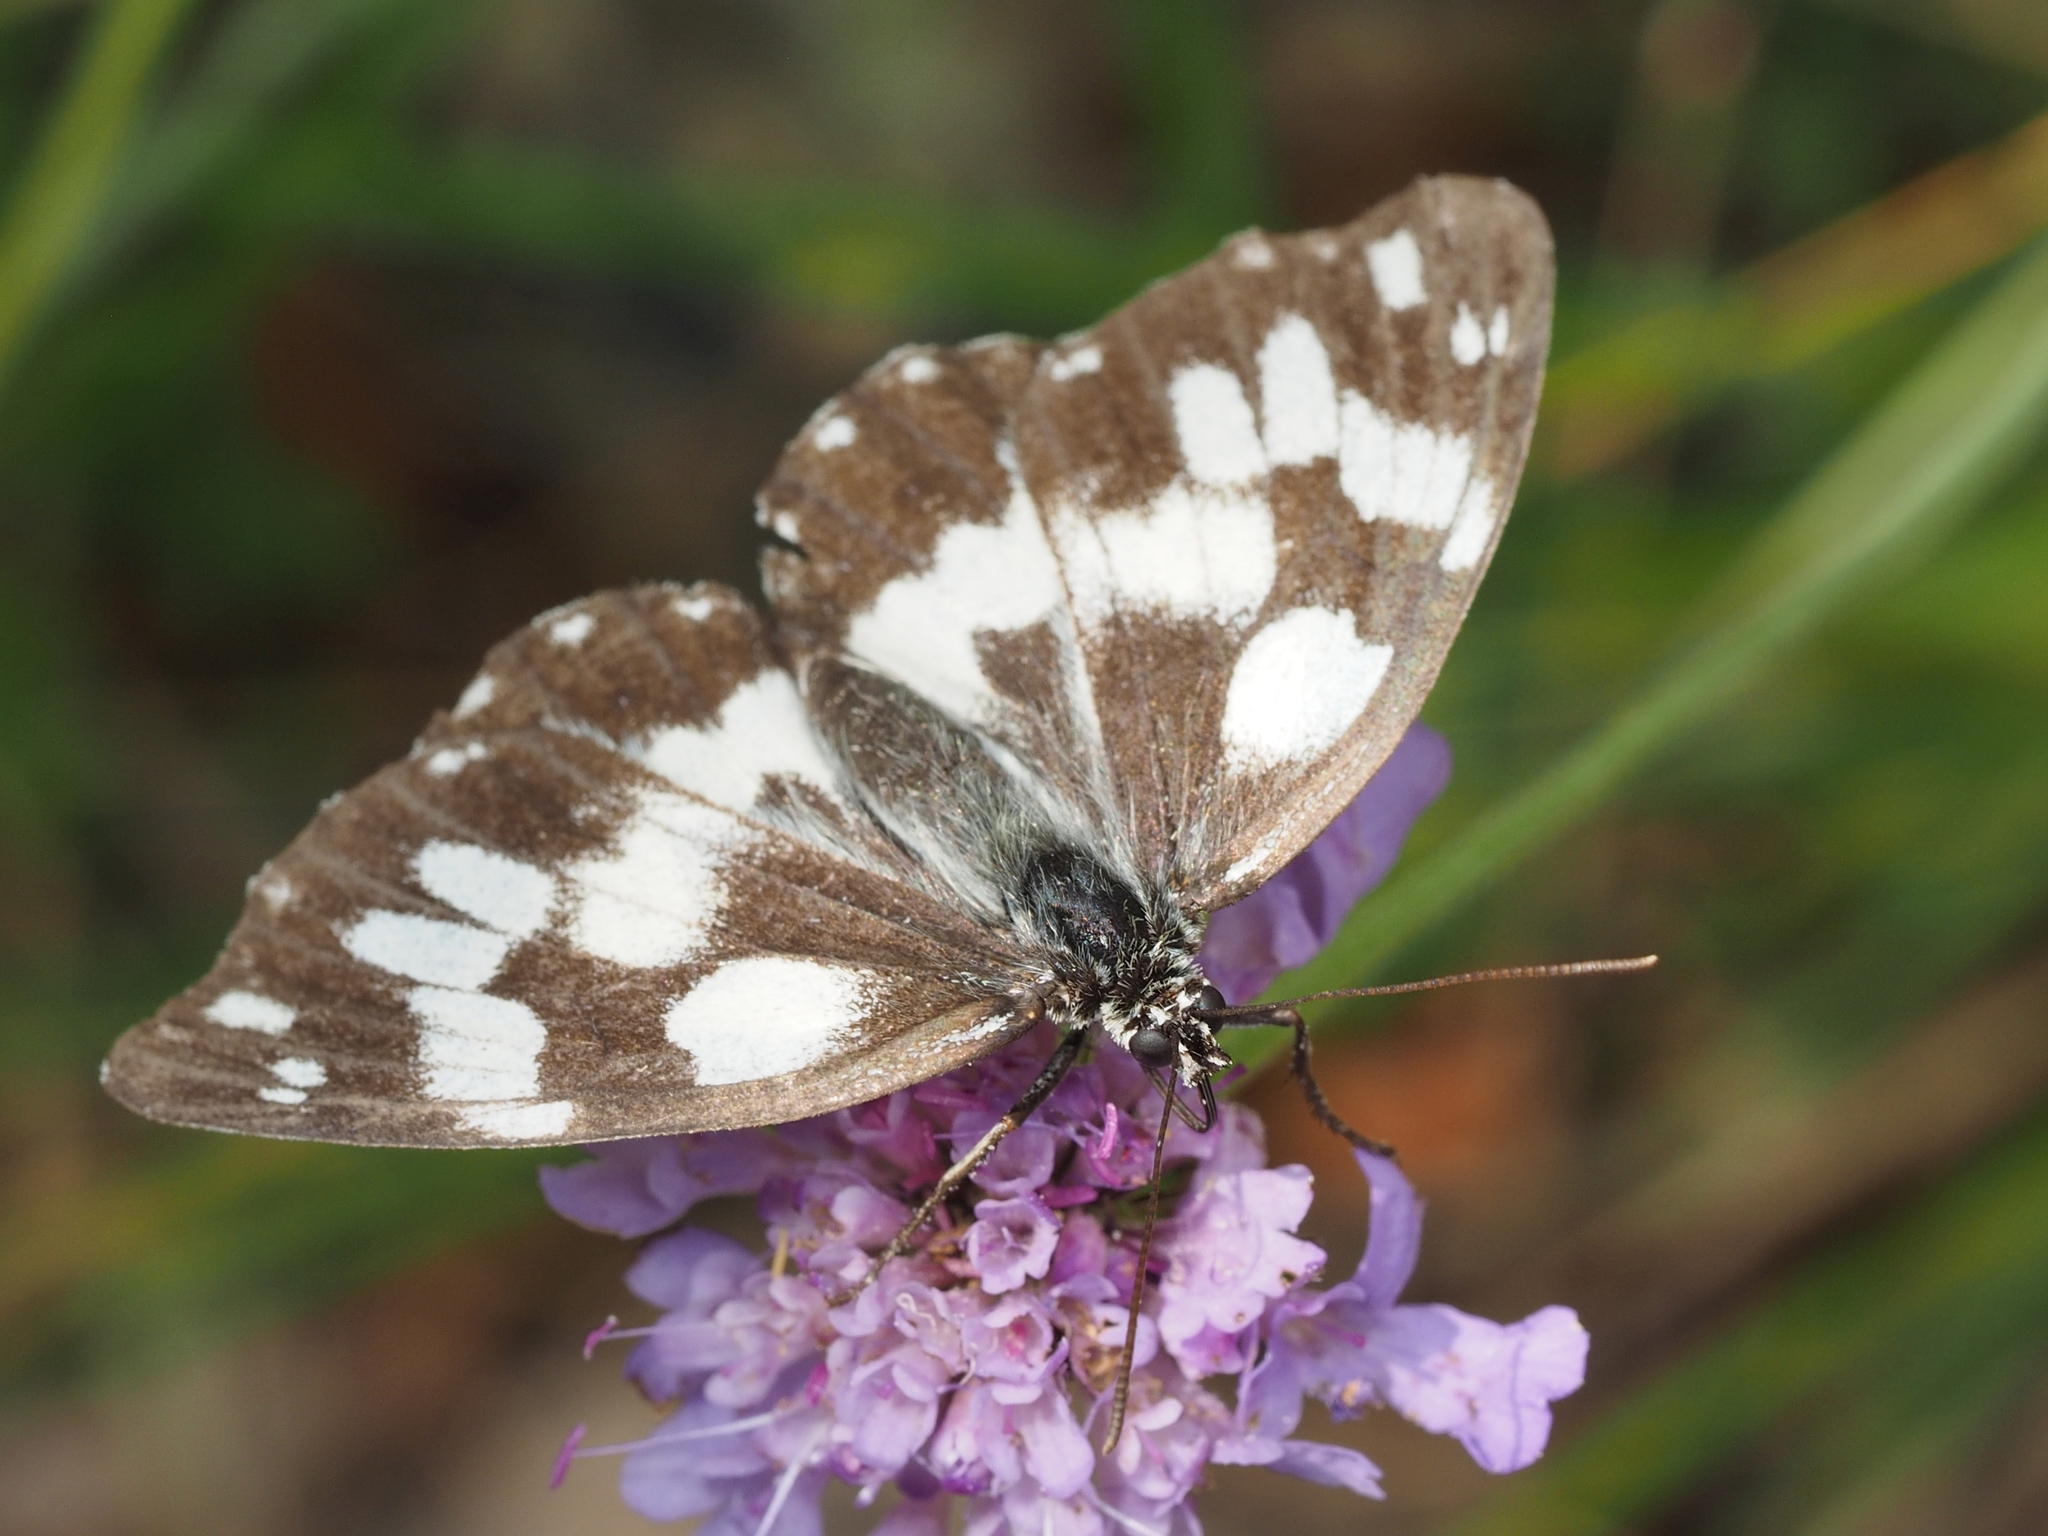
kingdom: Animalia
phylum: Arthropoda
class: Insecta
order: Lepidoptera
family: Nymphalidae
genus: Melanargia
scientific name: Melanargia galathea
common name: Marbled white
